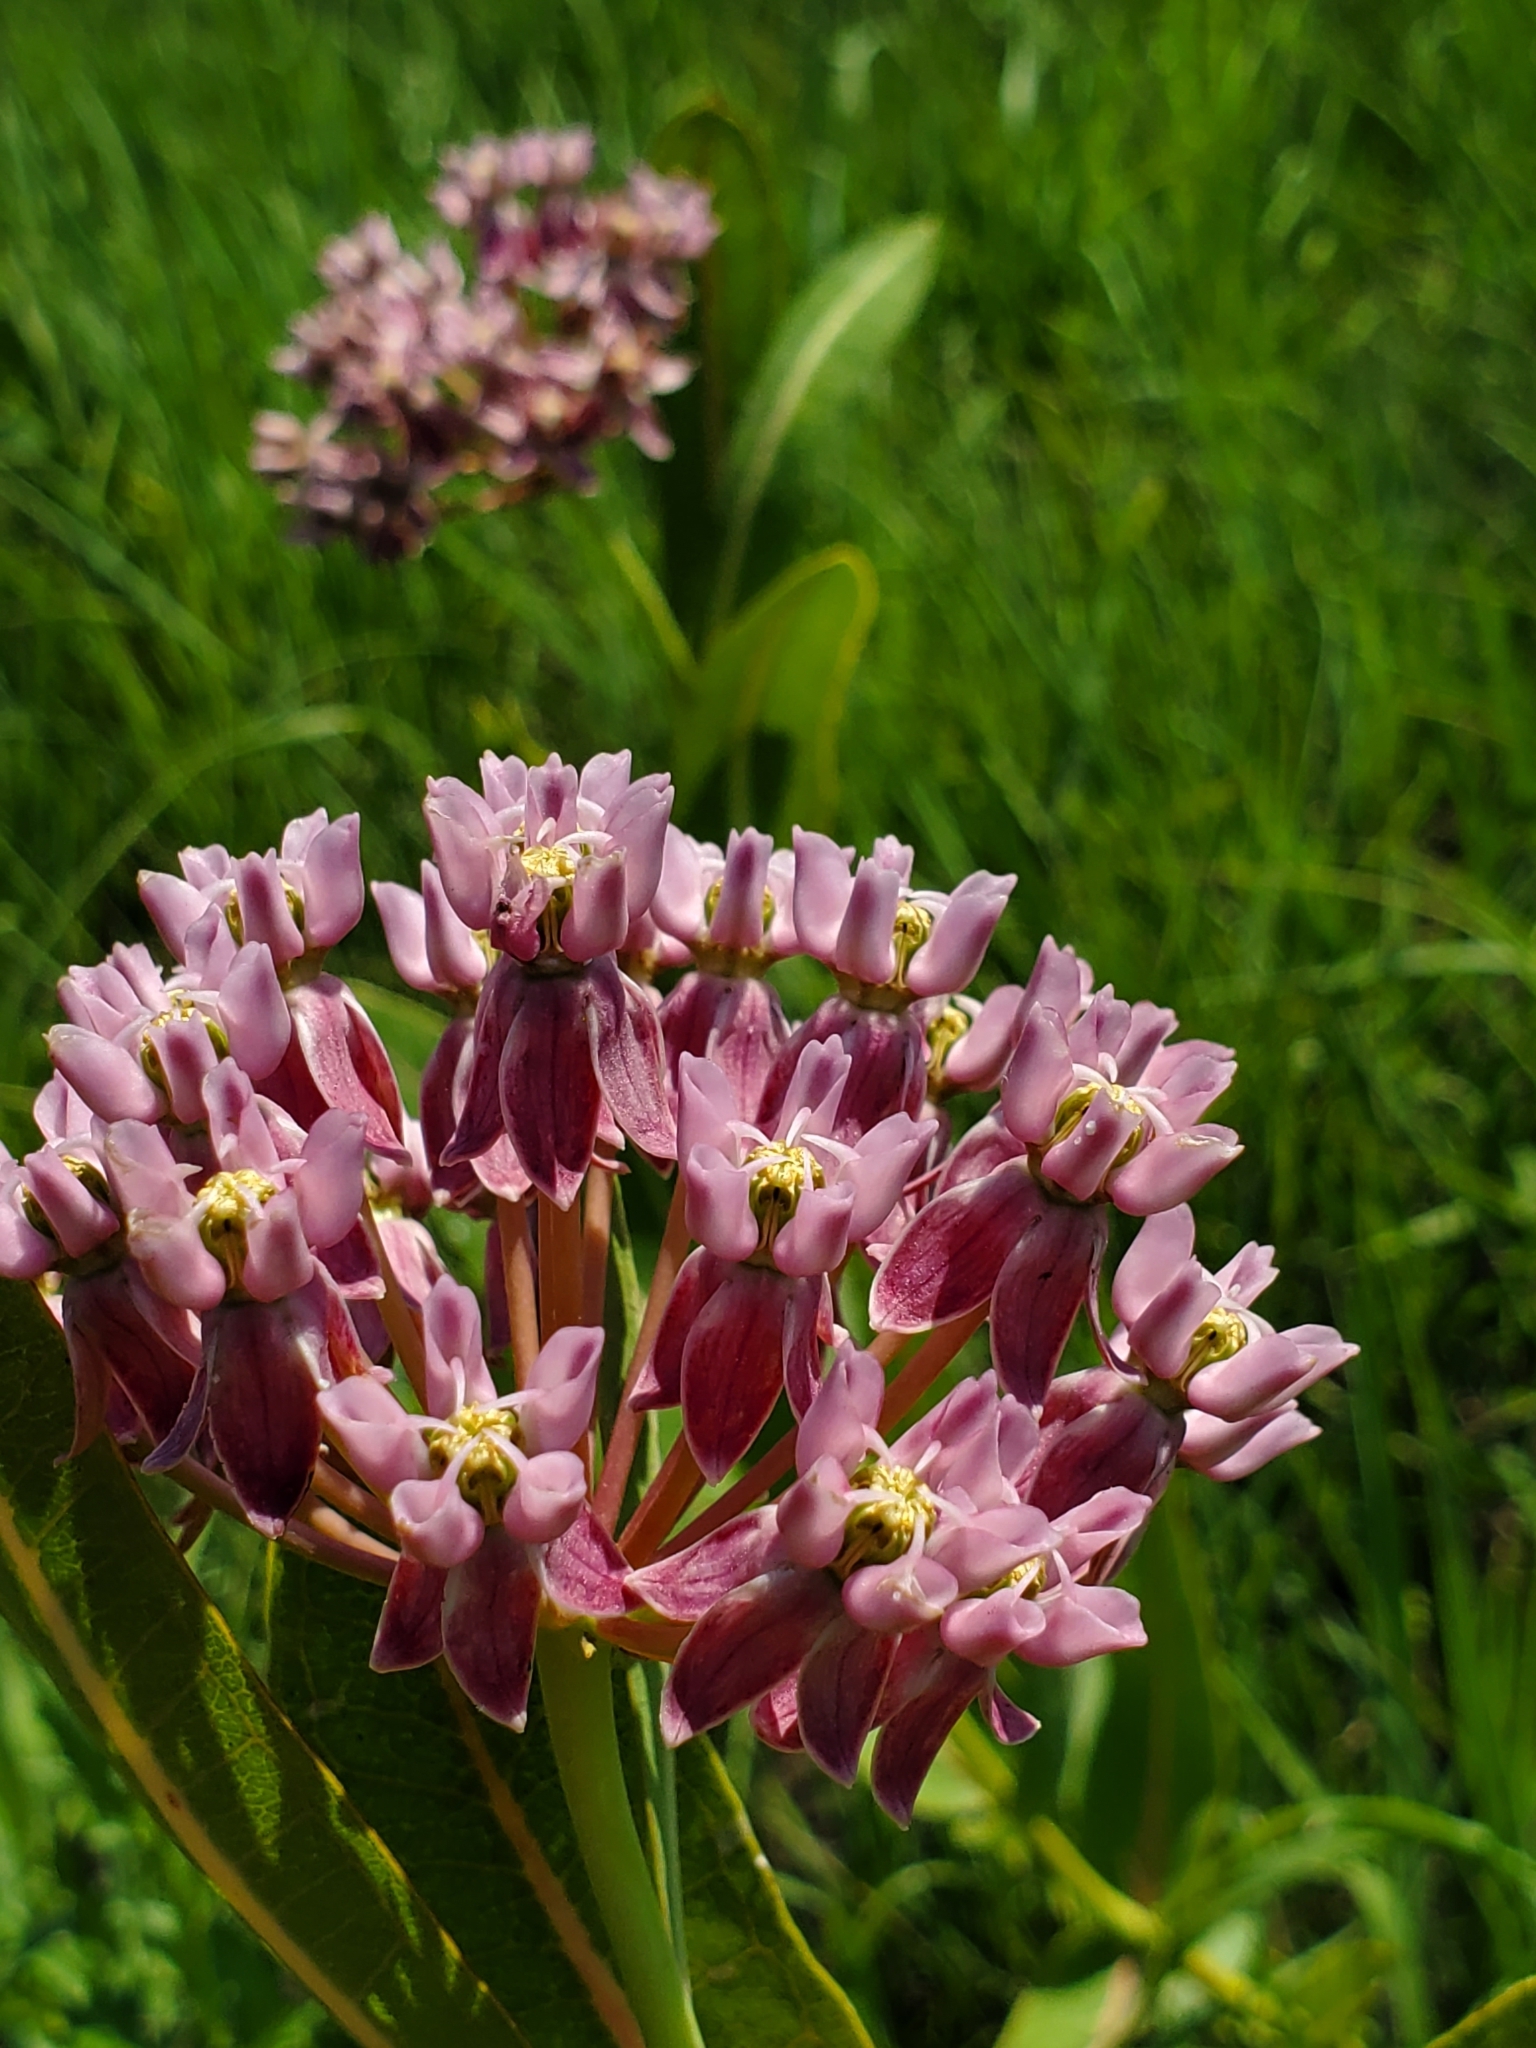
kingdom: Plantae
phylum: Tracheophyta
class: Magnoliopsida
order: Gentianales
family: Apocynaceae
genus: Asclepias
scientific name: Asclepias sullivantii
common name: Prairie milkweed
